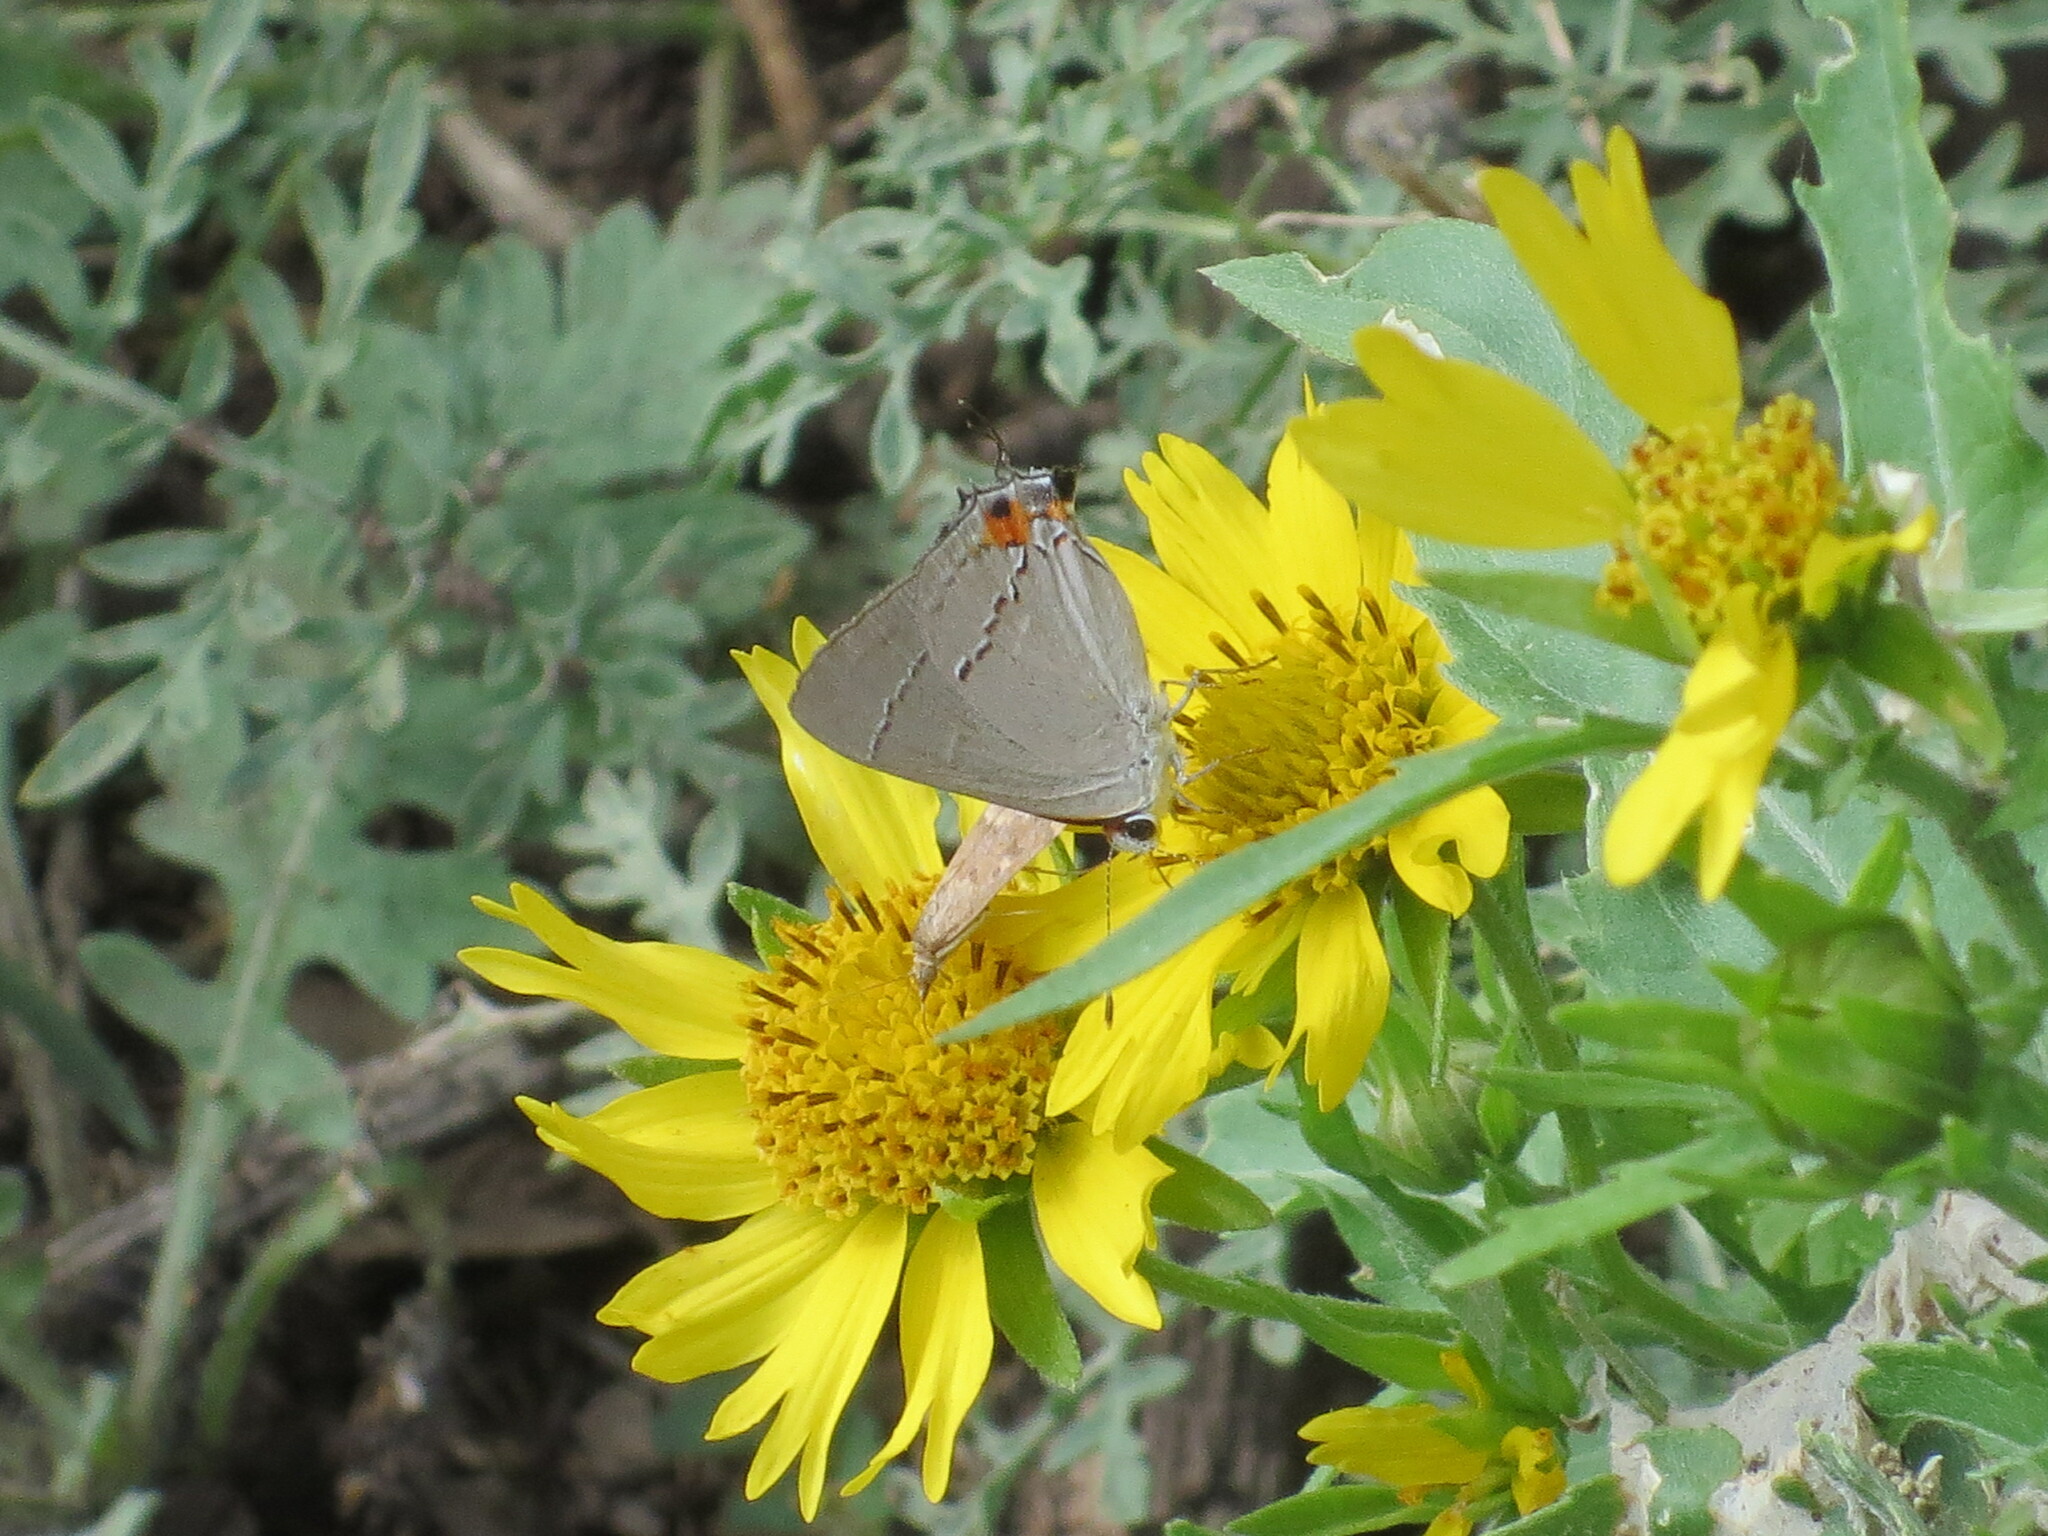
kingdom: Animalia
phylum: Arthropoda
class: Insecta
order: Lepidoptera
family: Lycaenidae
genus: Strymon
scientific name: Strymon melinus
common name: Gray hairstreak
